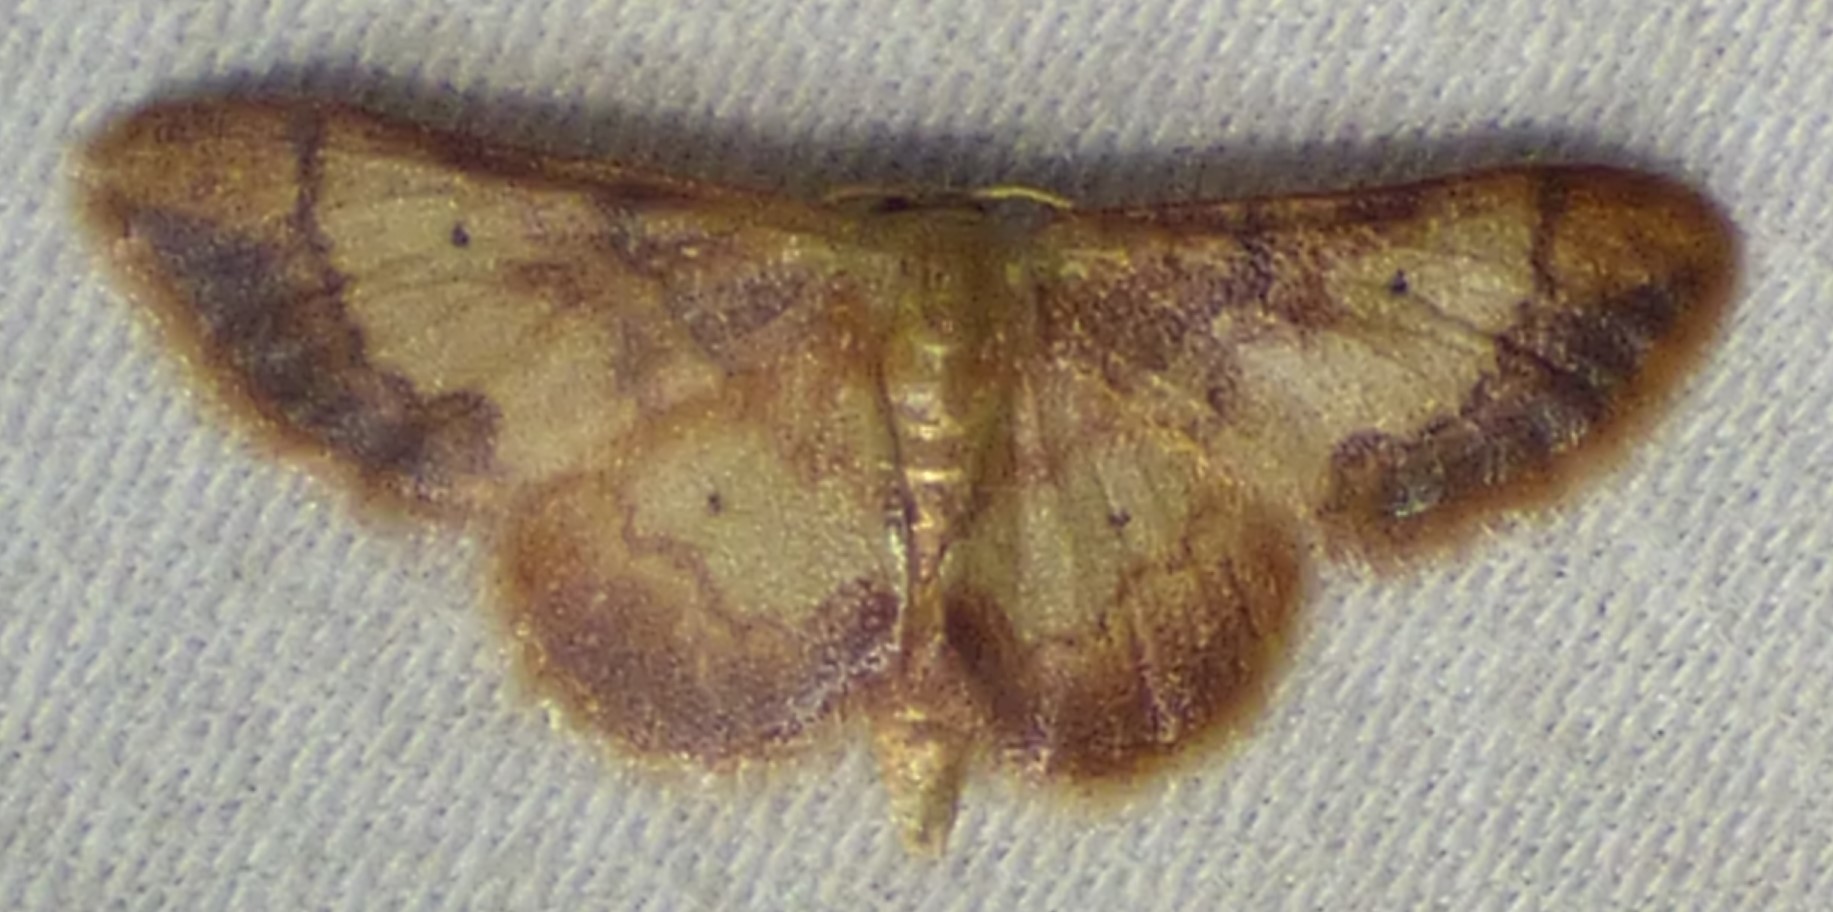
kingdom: Animalia
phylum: Arthropoda
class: Insecta
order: Lepidoptera
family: Geometridae
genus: Idaea
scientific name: Idaea demissaria
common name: Red-bordered wave
